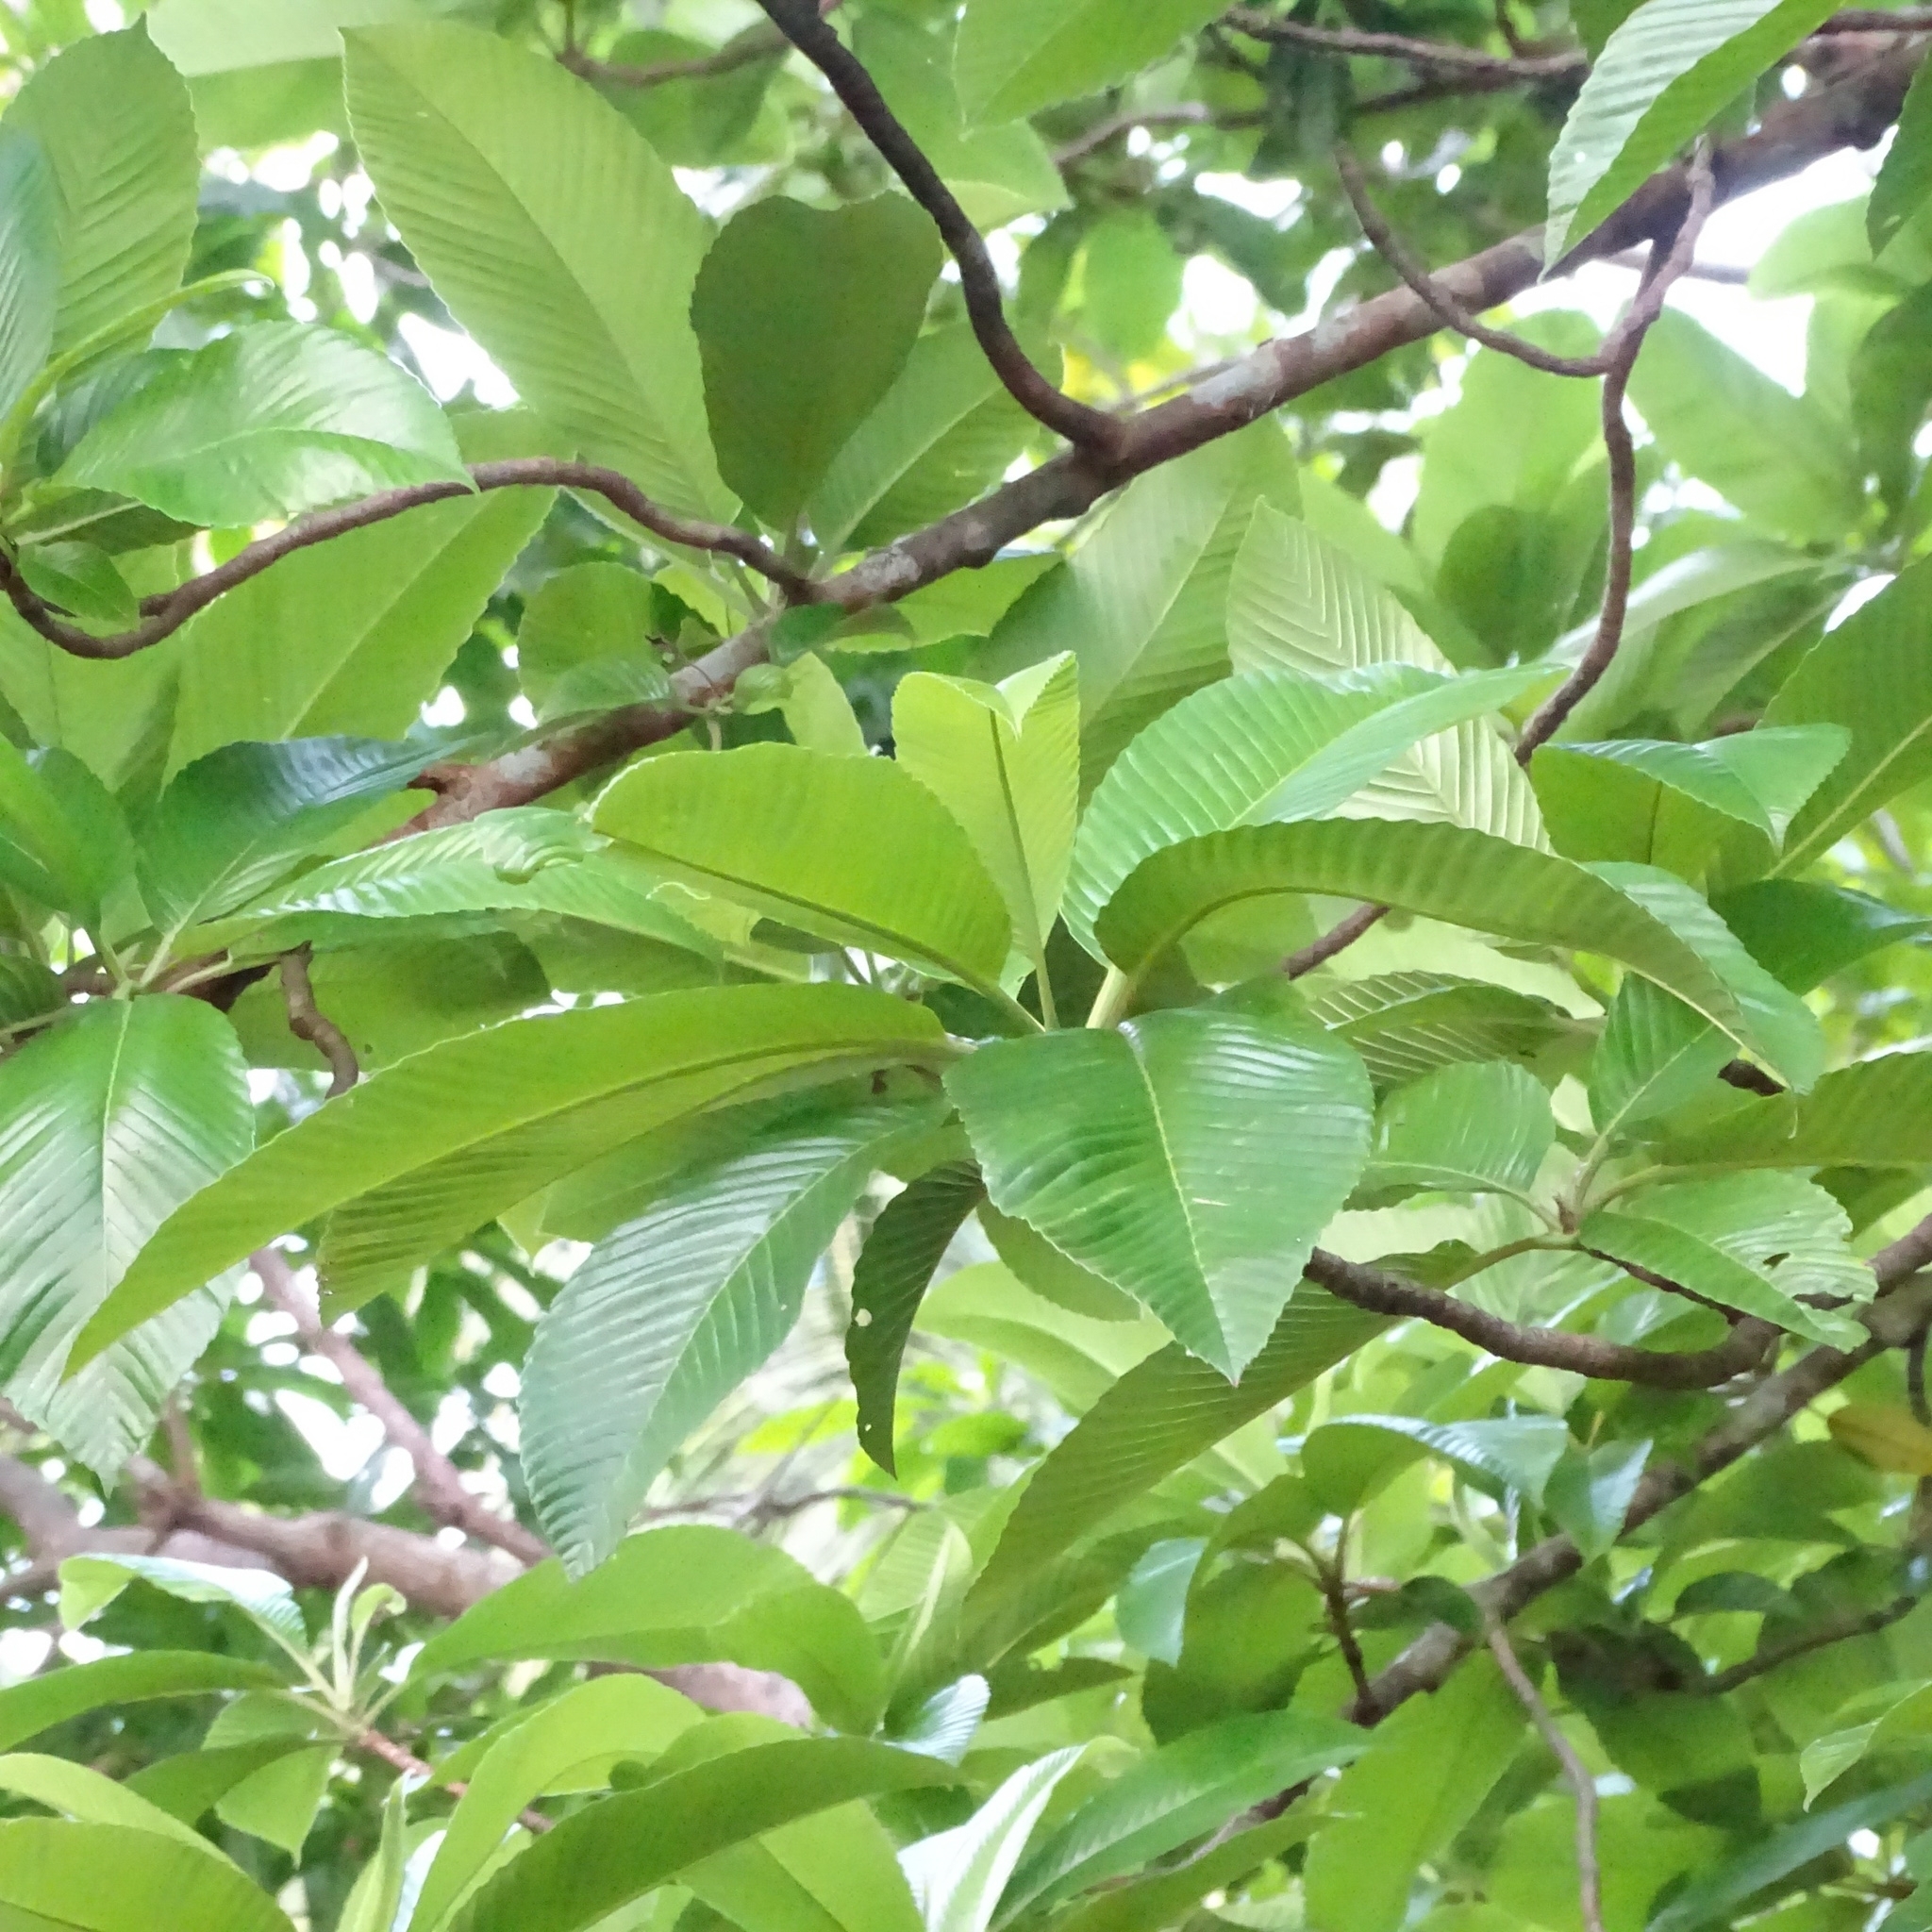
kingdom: Plantae
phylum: Tracheophyta
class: Magnoliopsida
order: Dilleniales
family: Dilleniaceae
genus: Dillenia
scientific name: Dillenia indica
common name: Elephant apple
